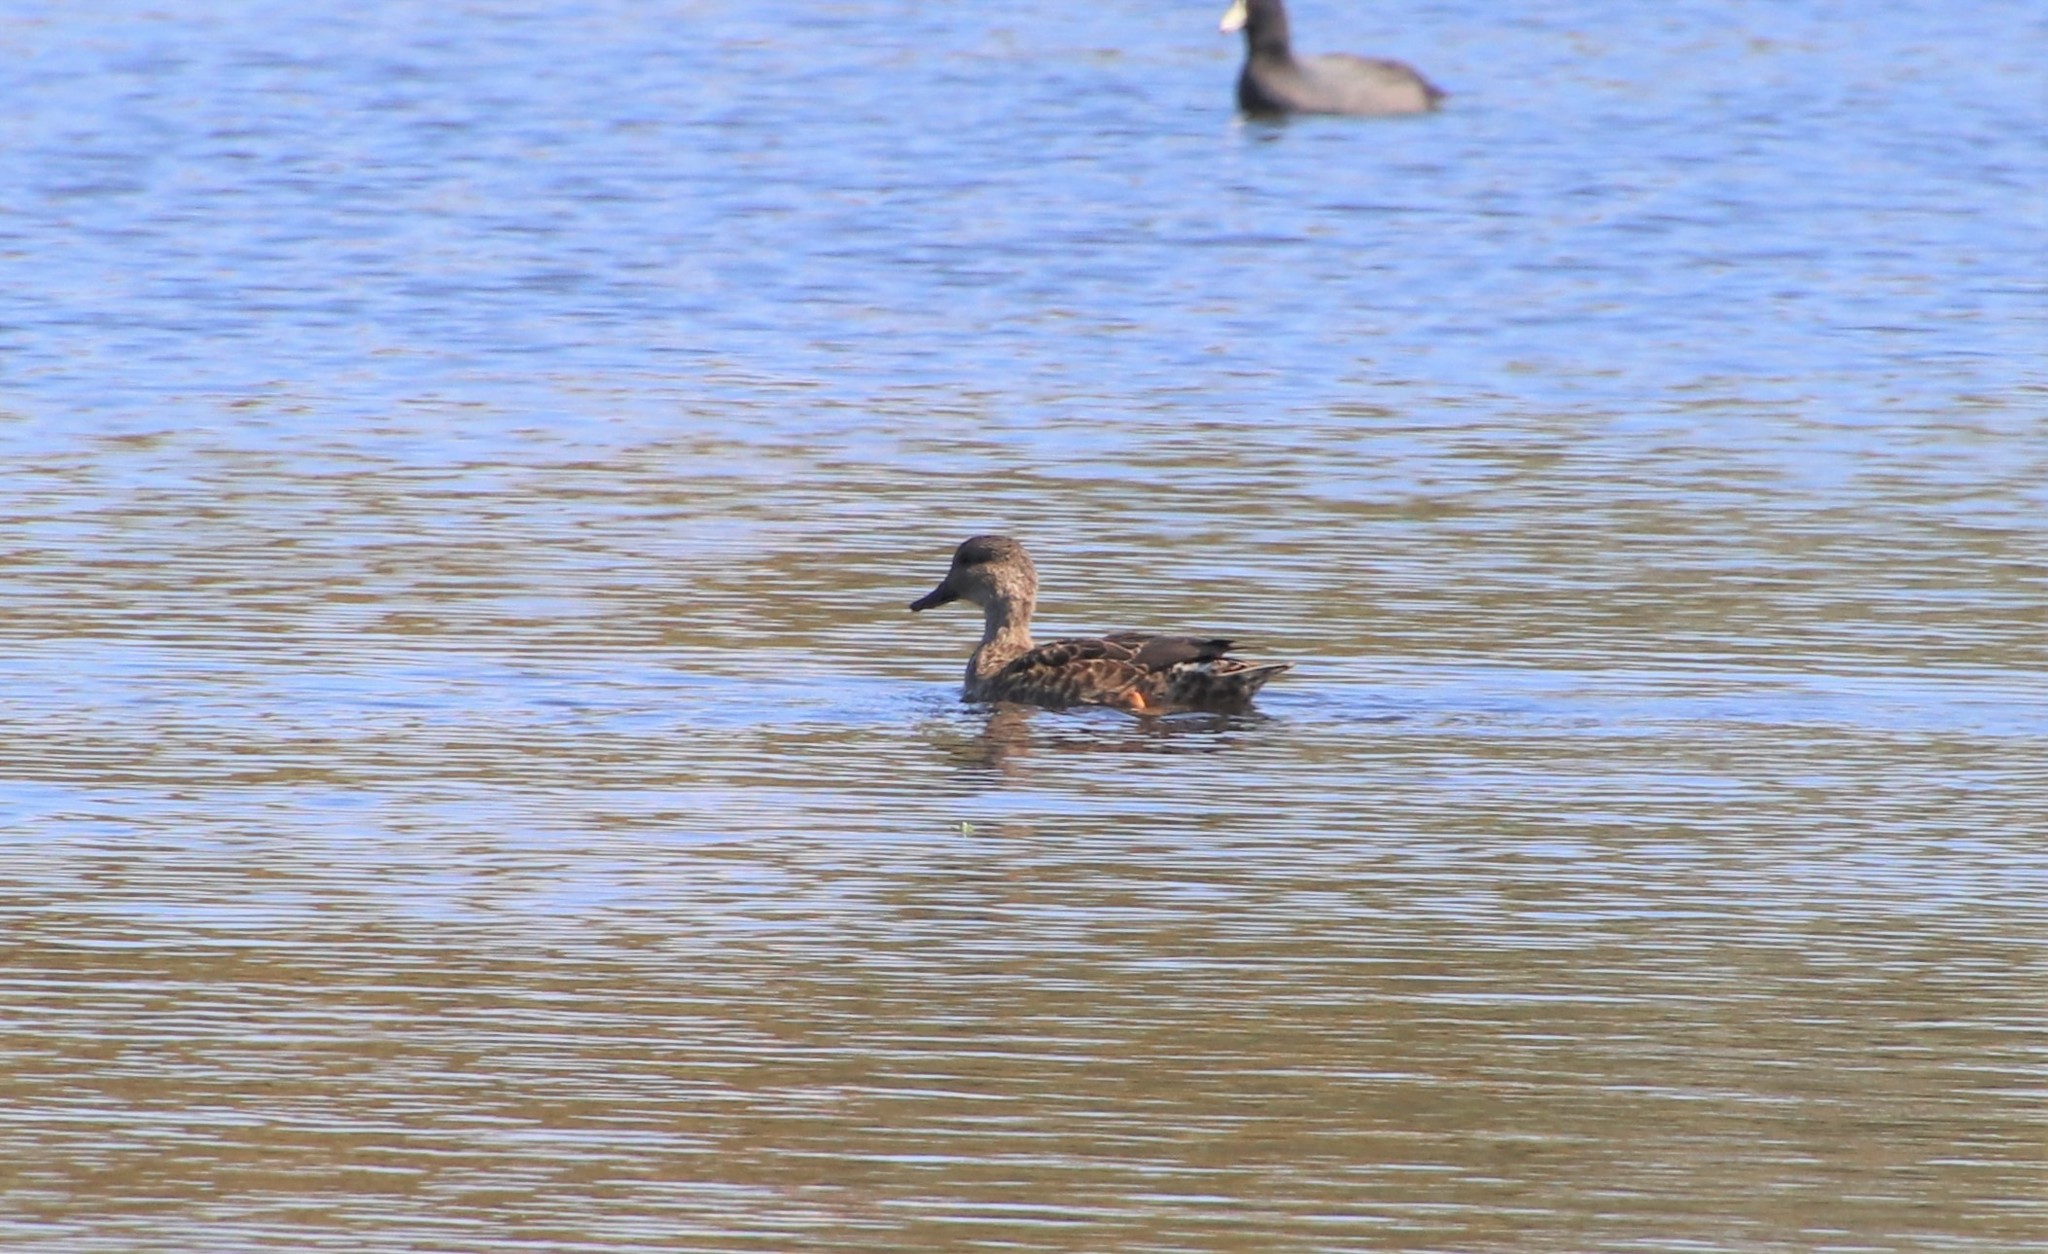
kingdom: Animalia
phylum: Chordata
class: Aves
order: Anseriformes
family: Anatidae
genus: Mareca
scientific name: Mareca strepera
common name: Gadwall
